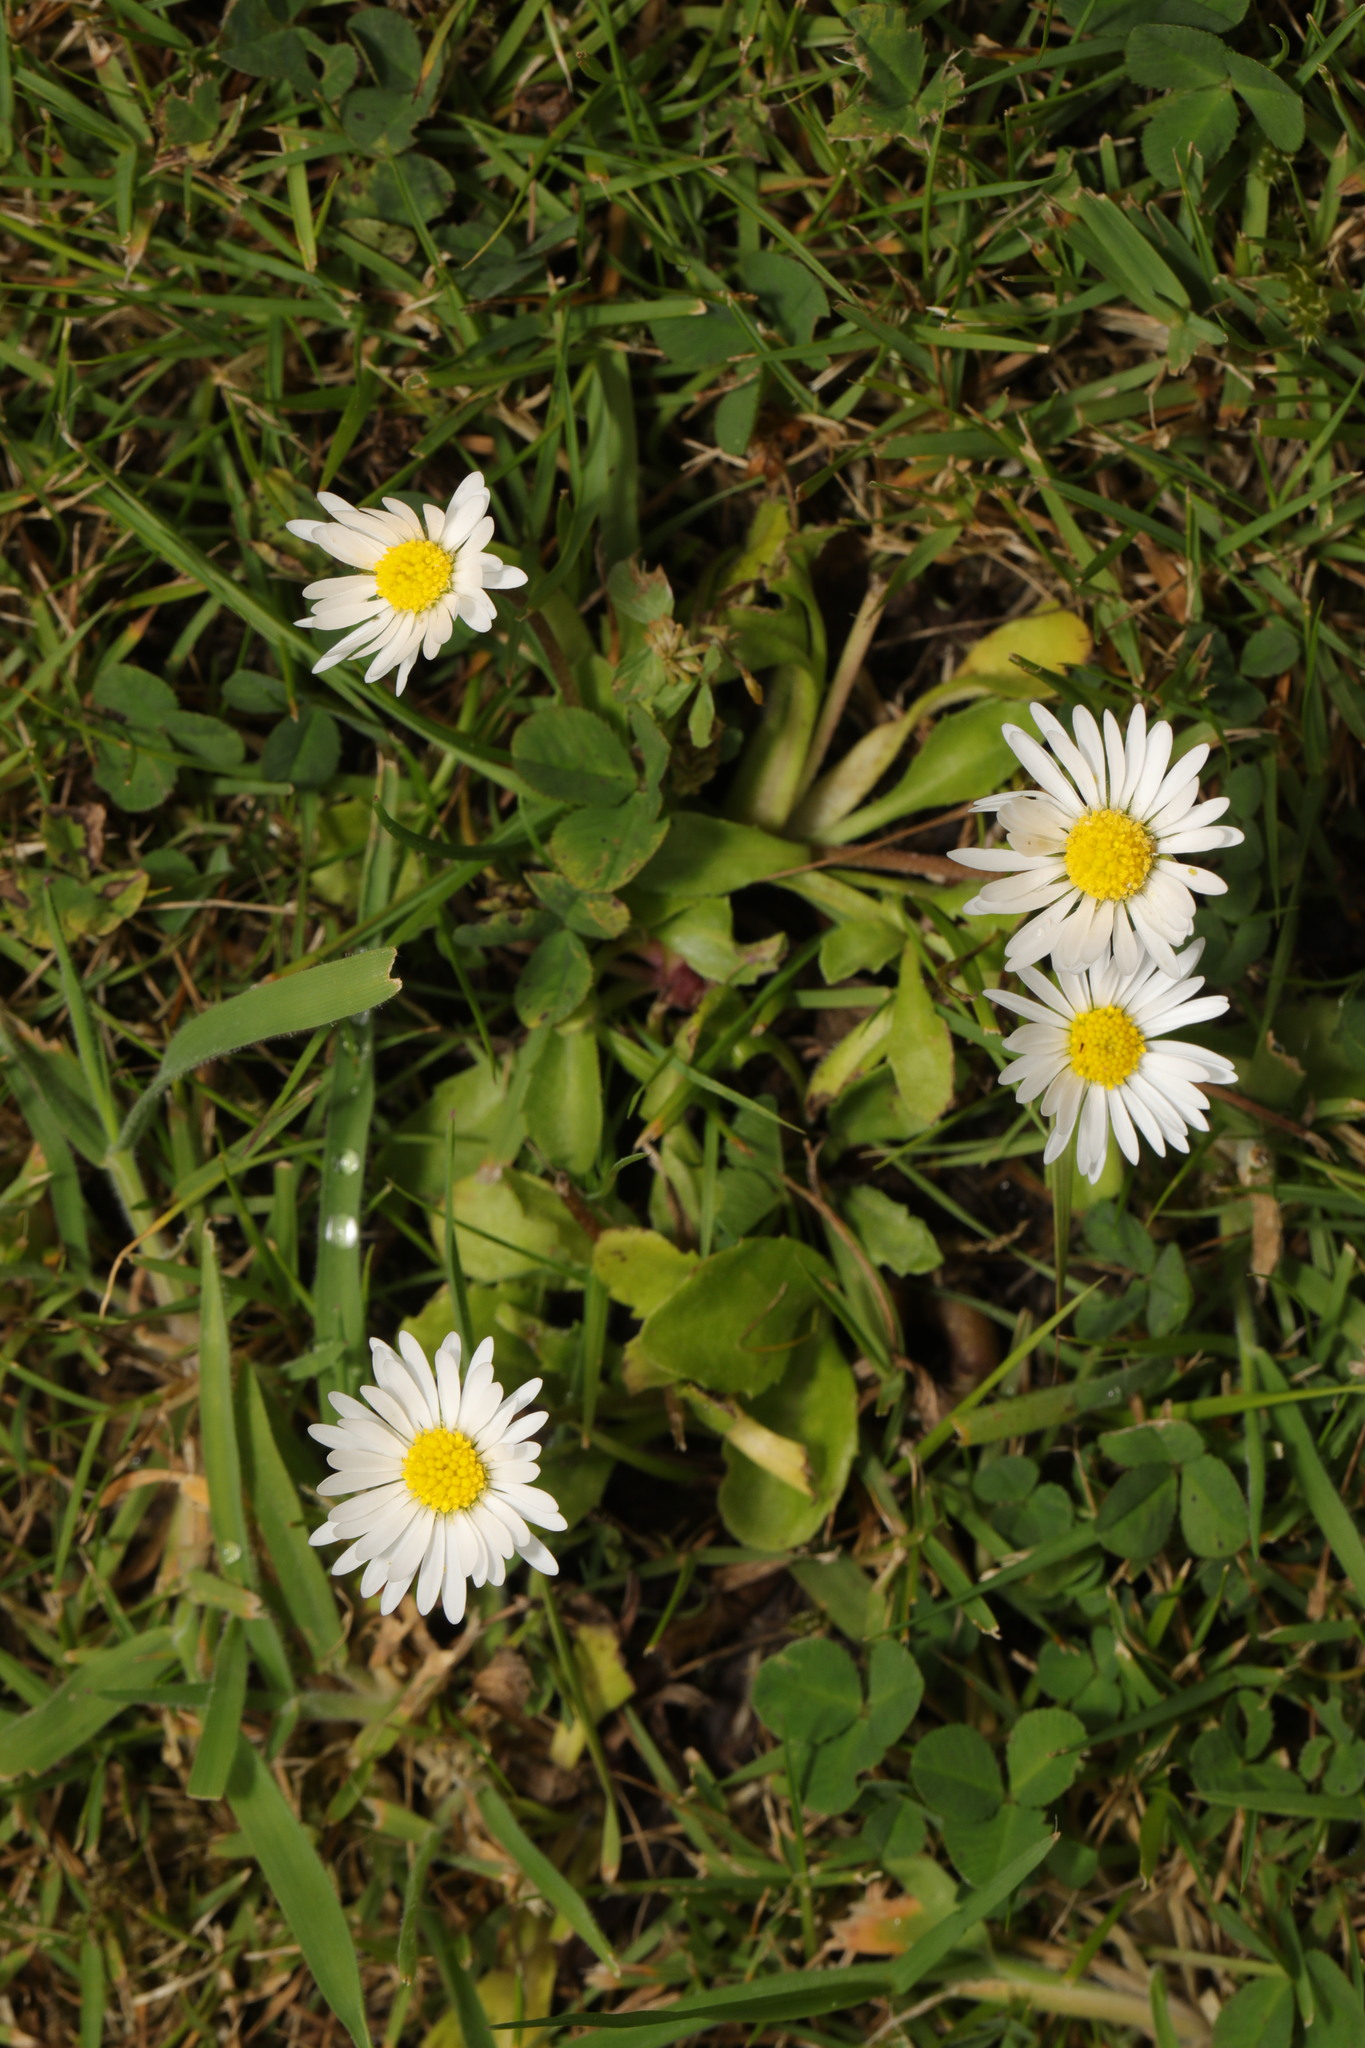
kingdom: Plantae
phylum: Tracheophyta
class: Magnoliopsida
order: Asterales
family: Asteraceae
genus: Bellis
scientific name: Bellis perennis
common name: Lawndaisy
